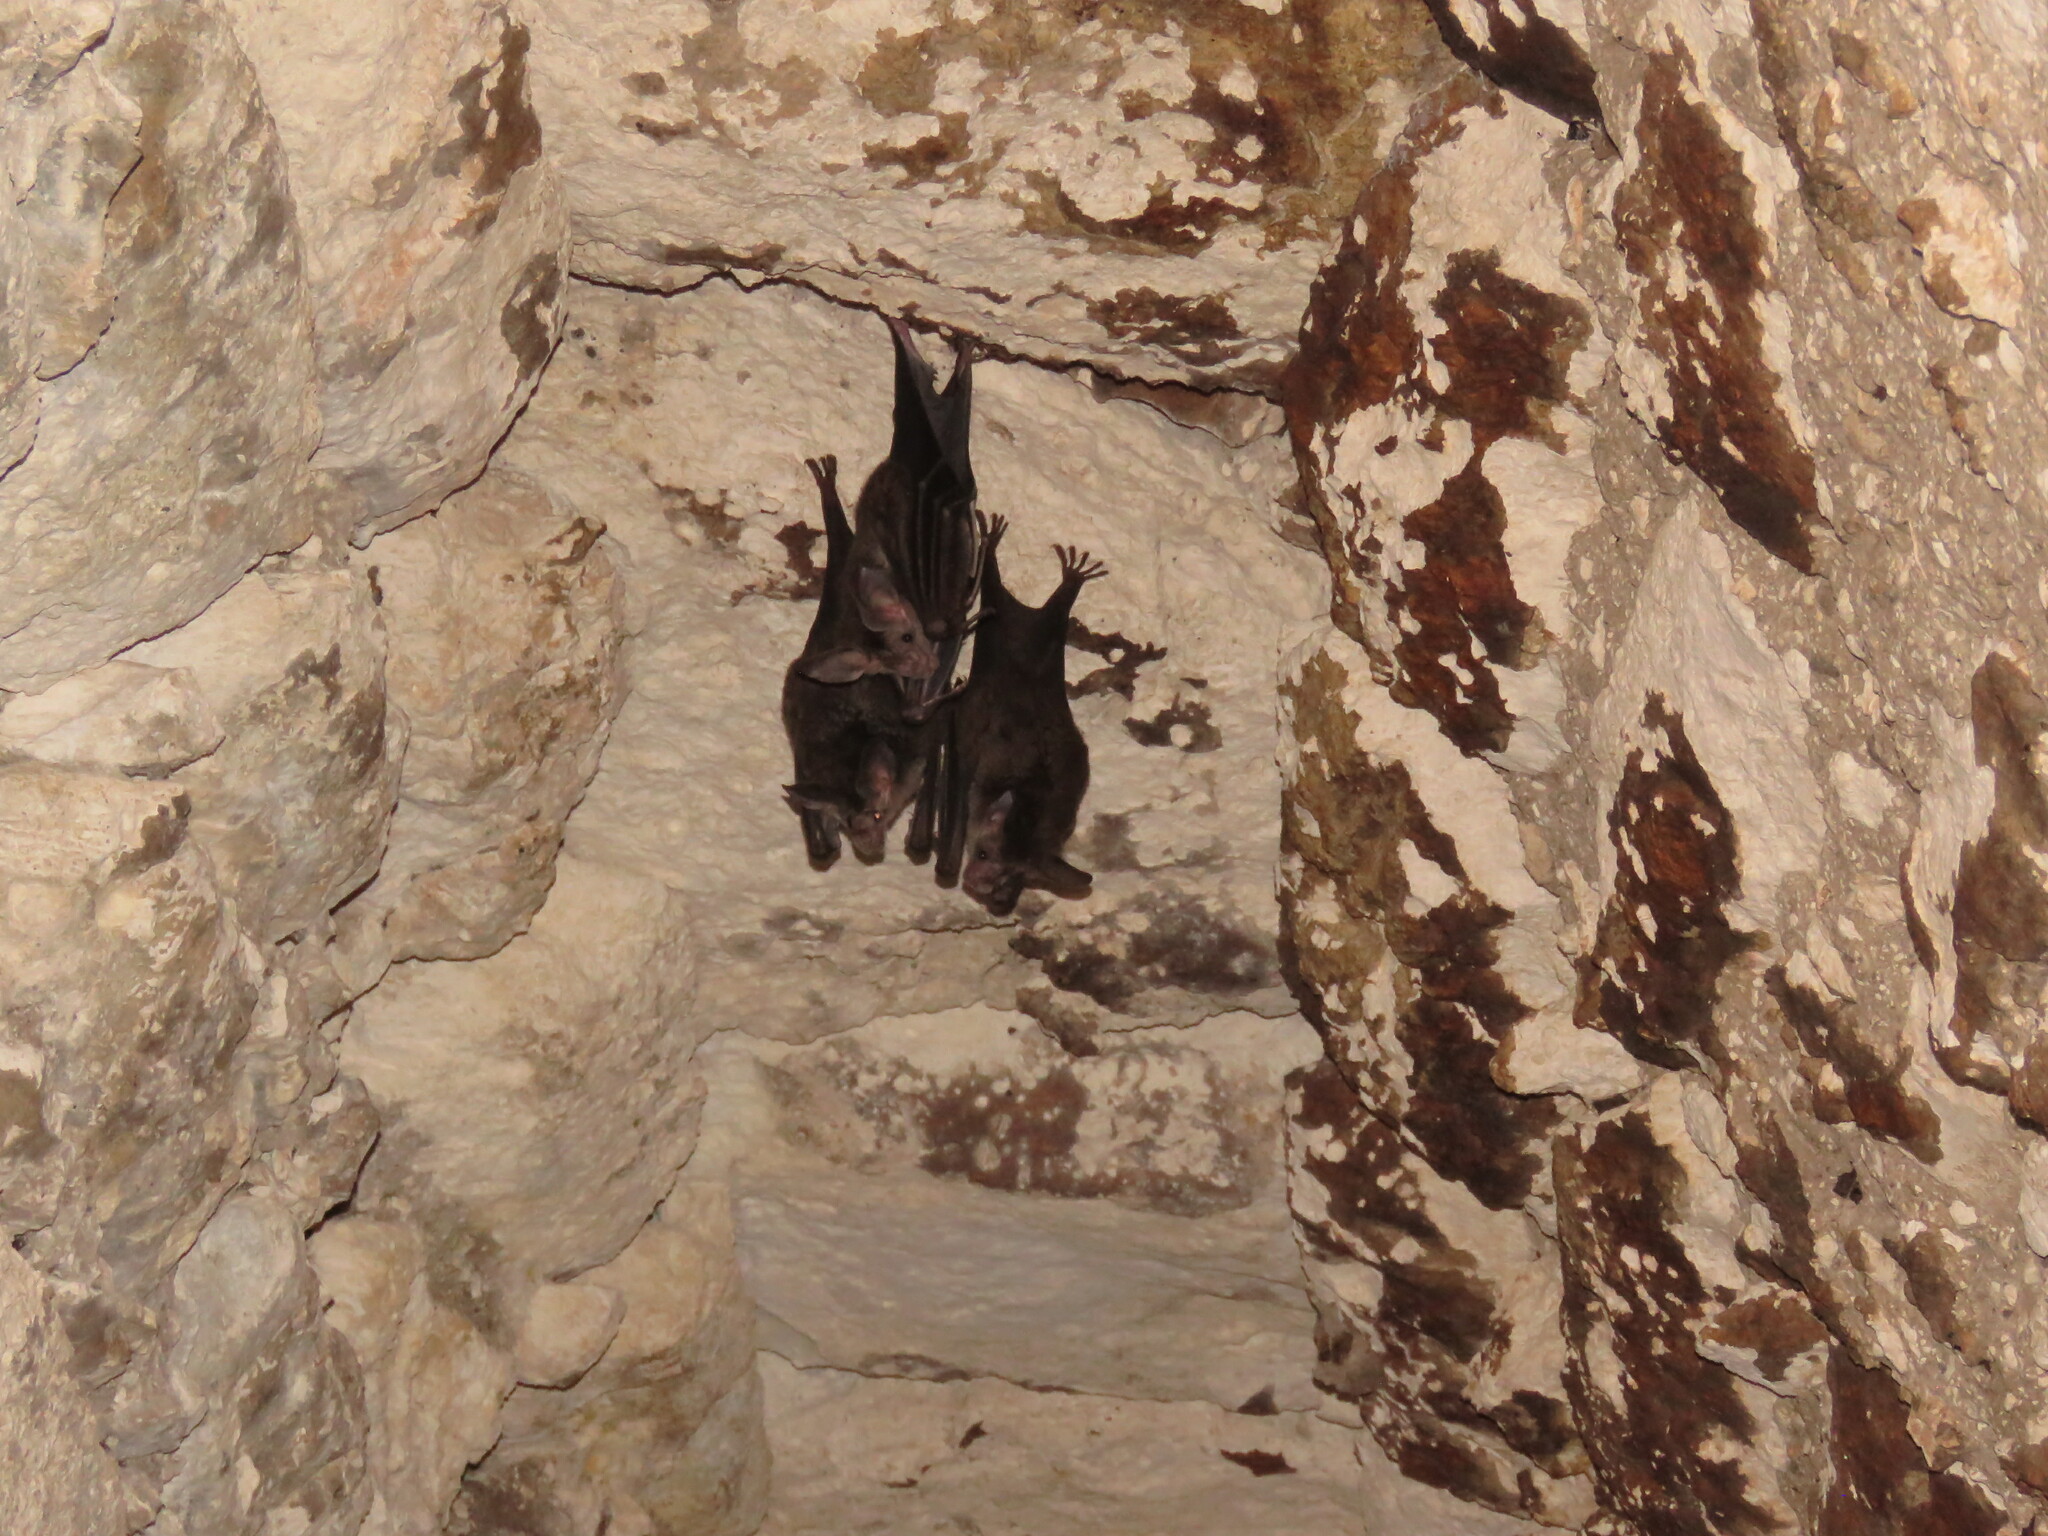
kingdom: Animalia
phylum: Chordata
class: Mammalia
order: Chiroptera
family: Phyllostomidae
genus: Chrotopterus
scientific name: Chrotopterus auritus
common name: Woolly false vampire bat
